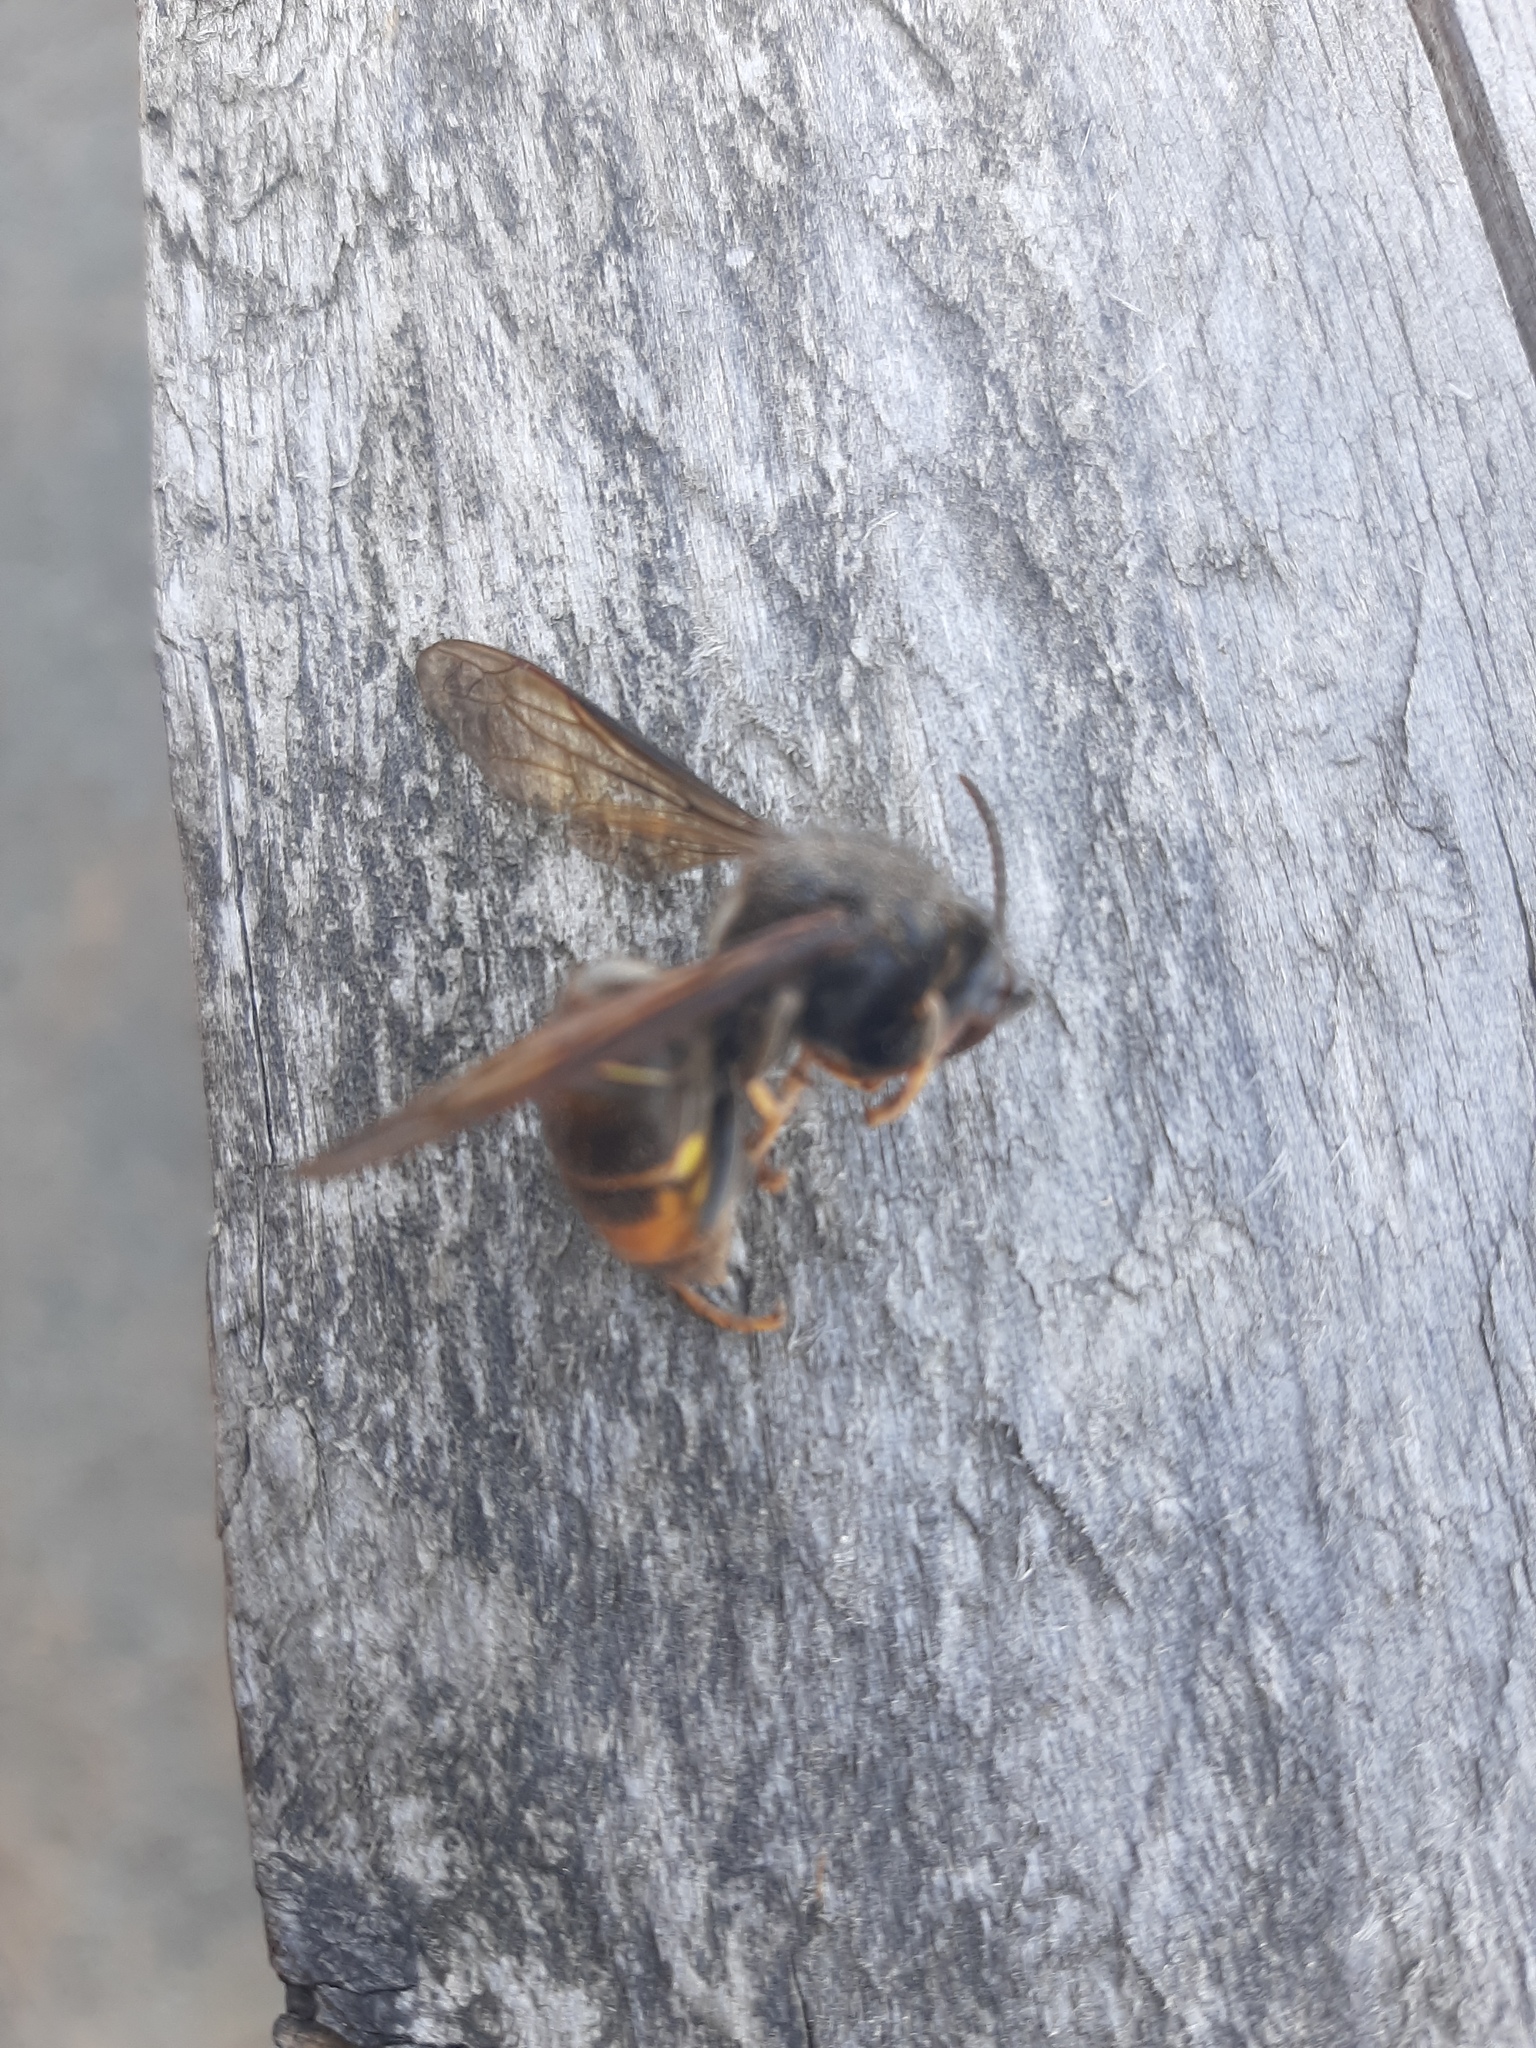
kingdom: Animalia
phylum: Arthropoda
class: Insecta
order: Hymenoptera
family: Vespidae
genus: Vespa
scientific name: Vespa velutina
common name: Asian hornet
